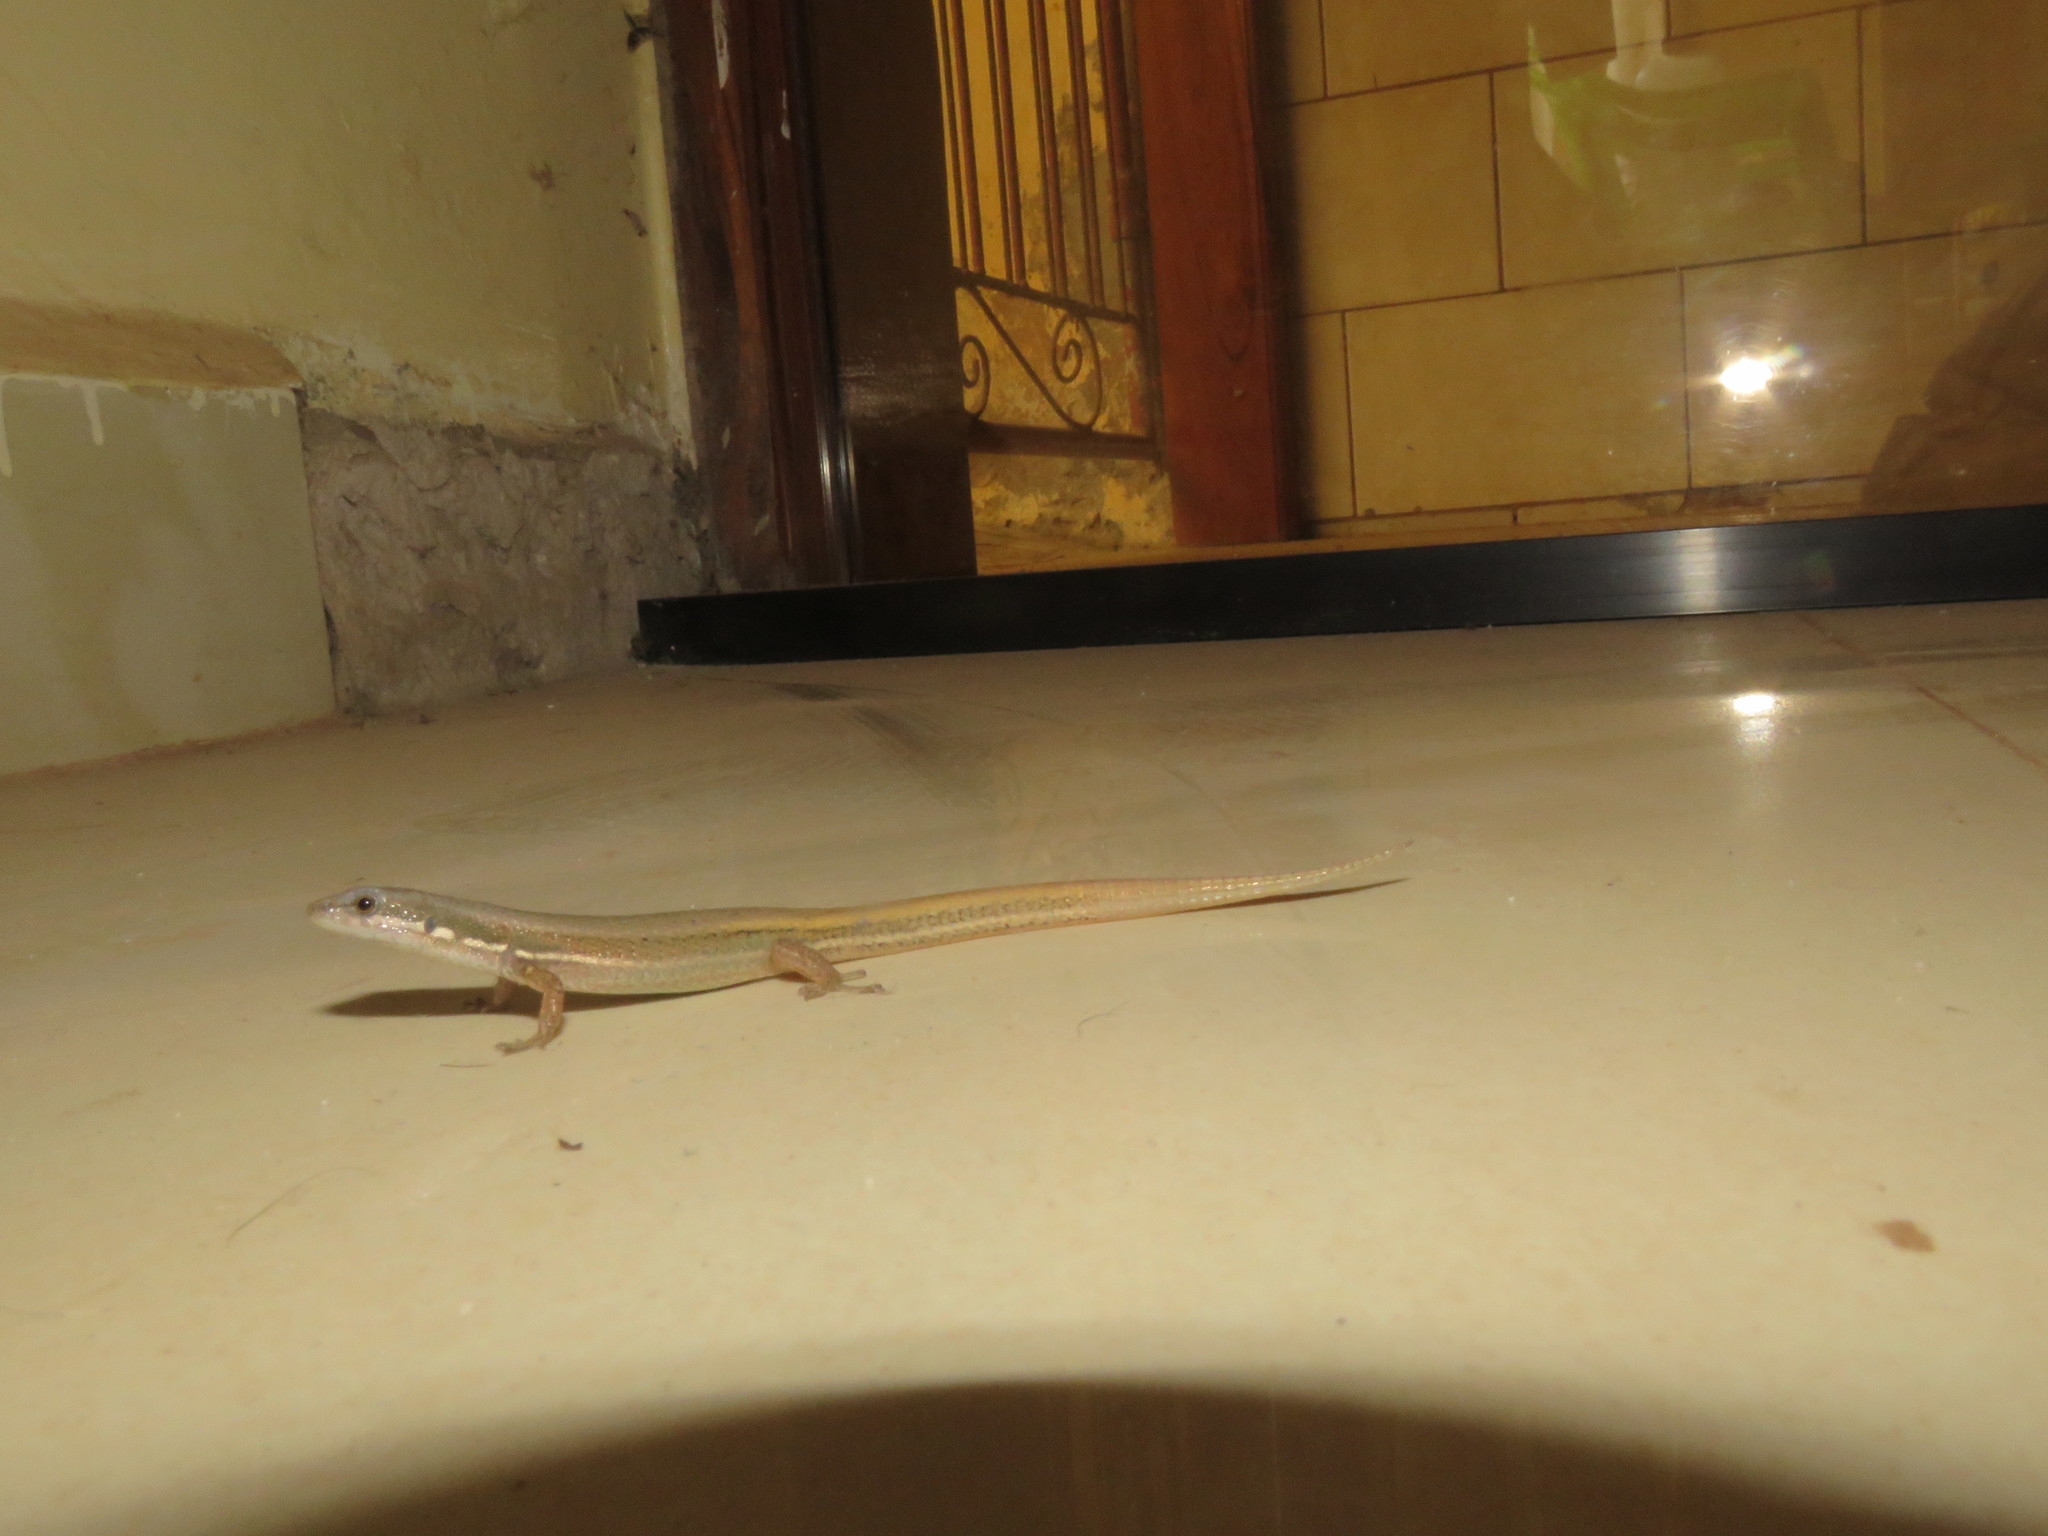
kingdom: Animalia
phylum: Chordata
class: Squamata
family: Gymnophthalmidae
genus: Cercosaura
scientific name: Cercosaura eigenmanni
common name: Eigenmann's cercosaura
